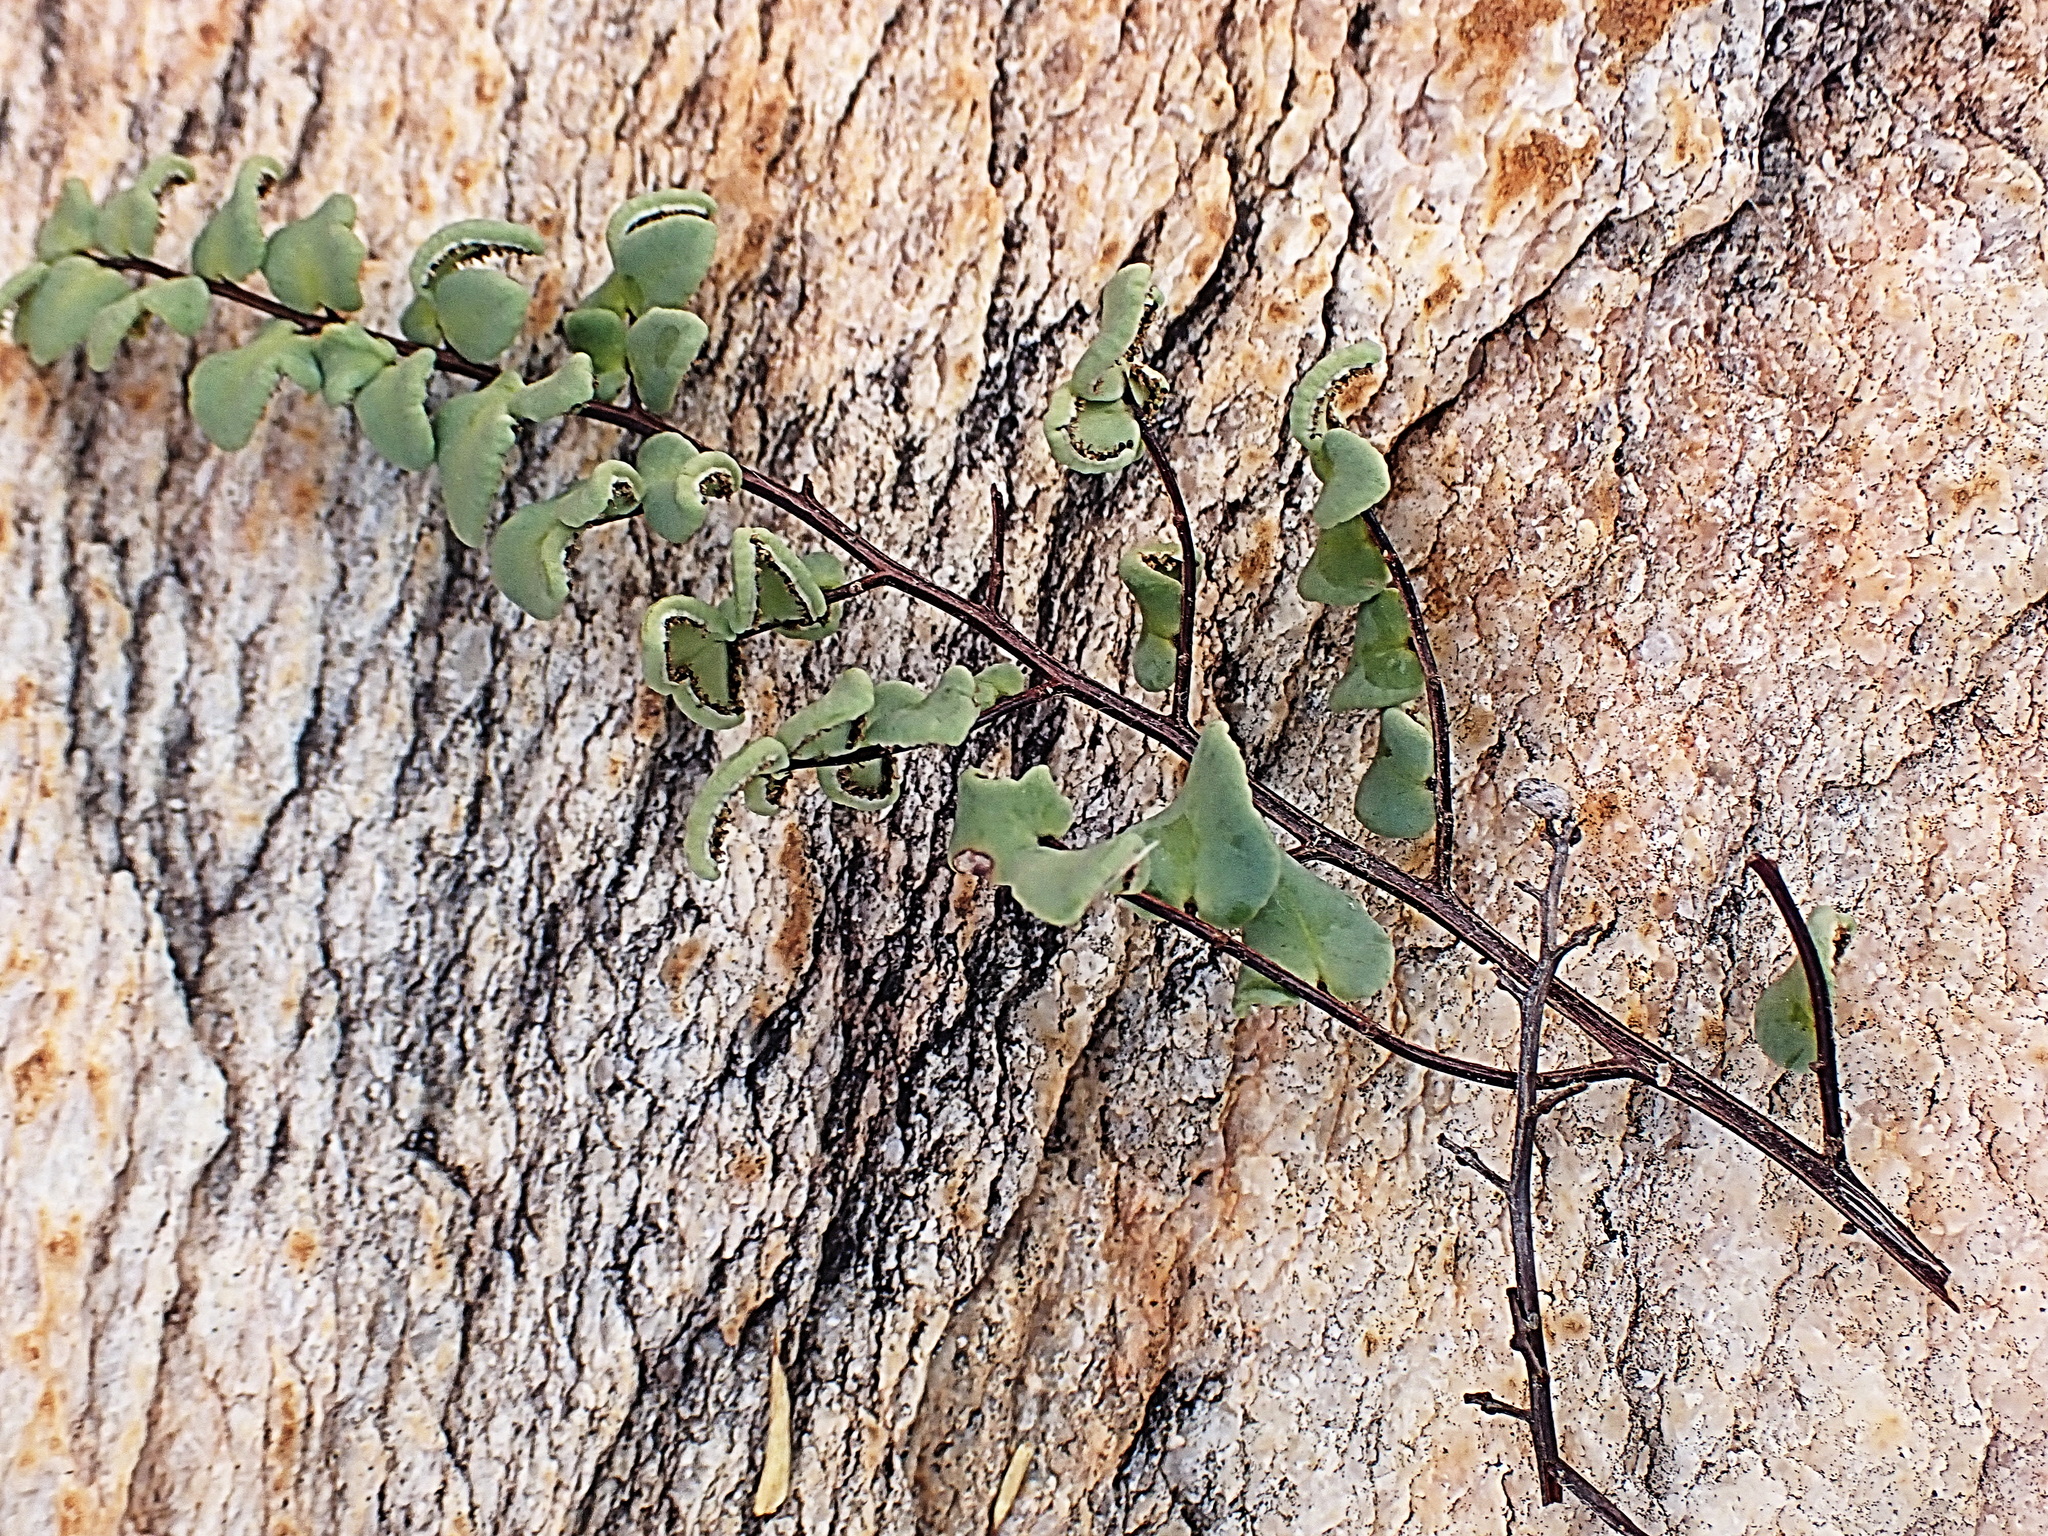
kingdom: Plantae
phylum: Tracheophyta
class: Polypodiopsida
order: Polypodiales
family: Pteridaceae
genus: Pellaea
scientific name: Pellaea calomelanos
